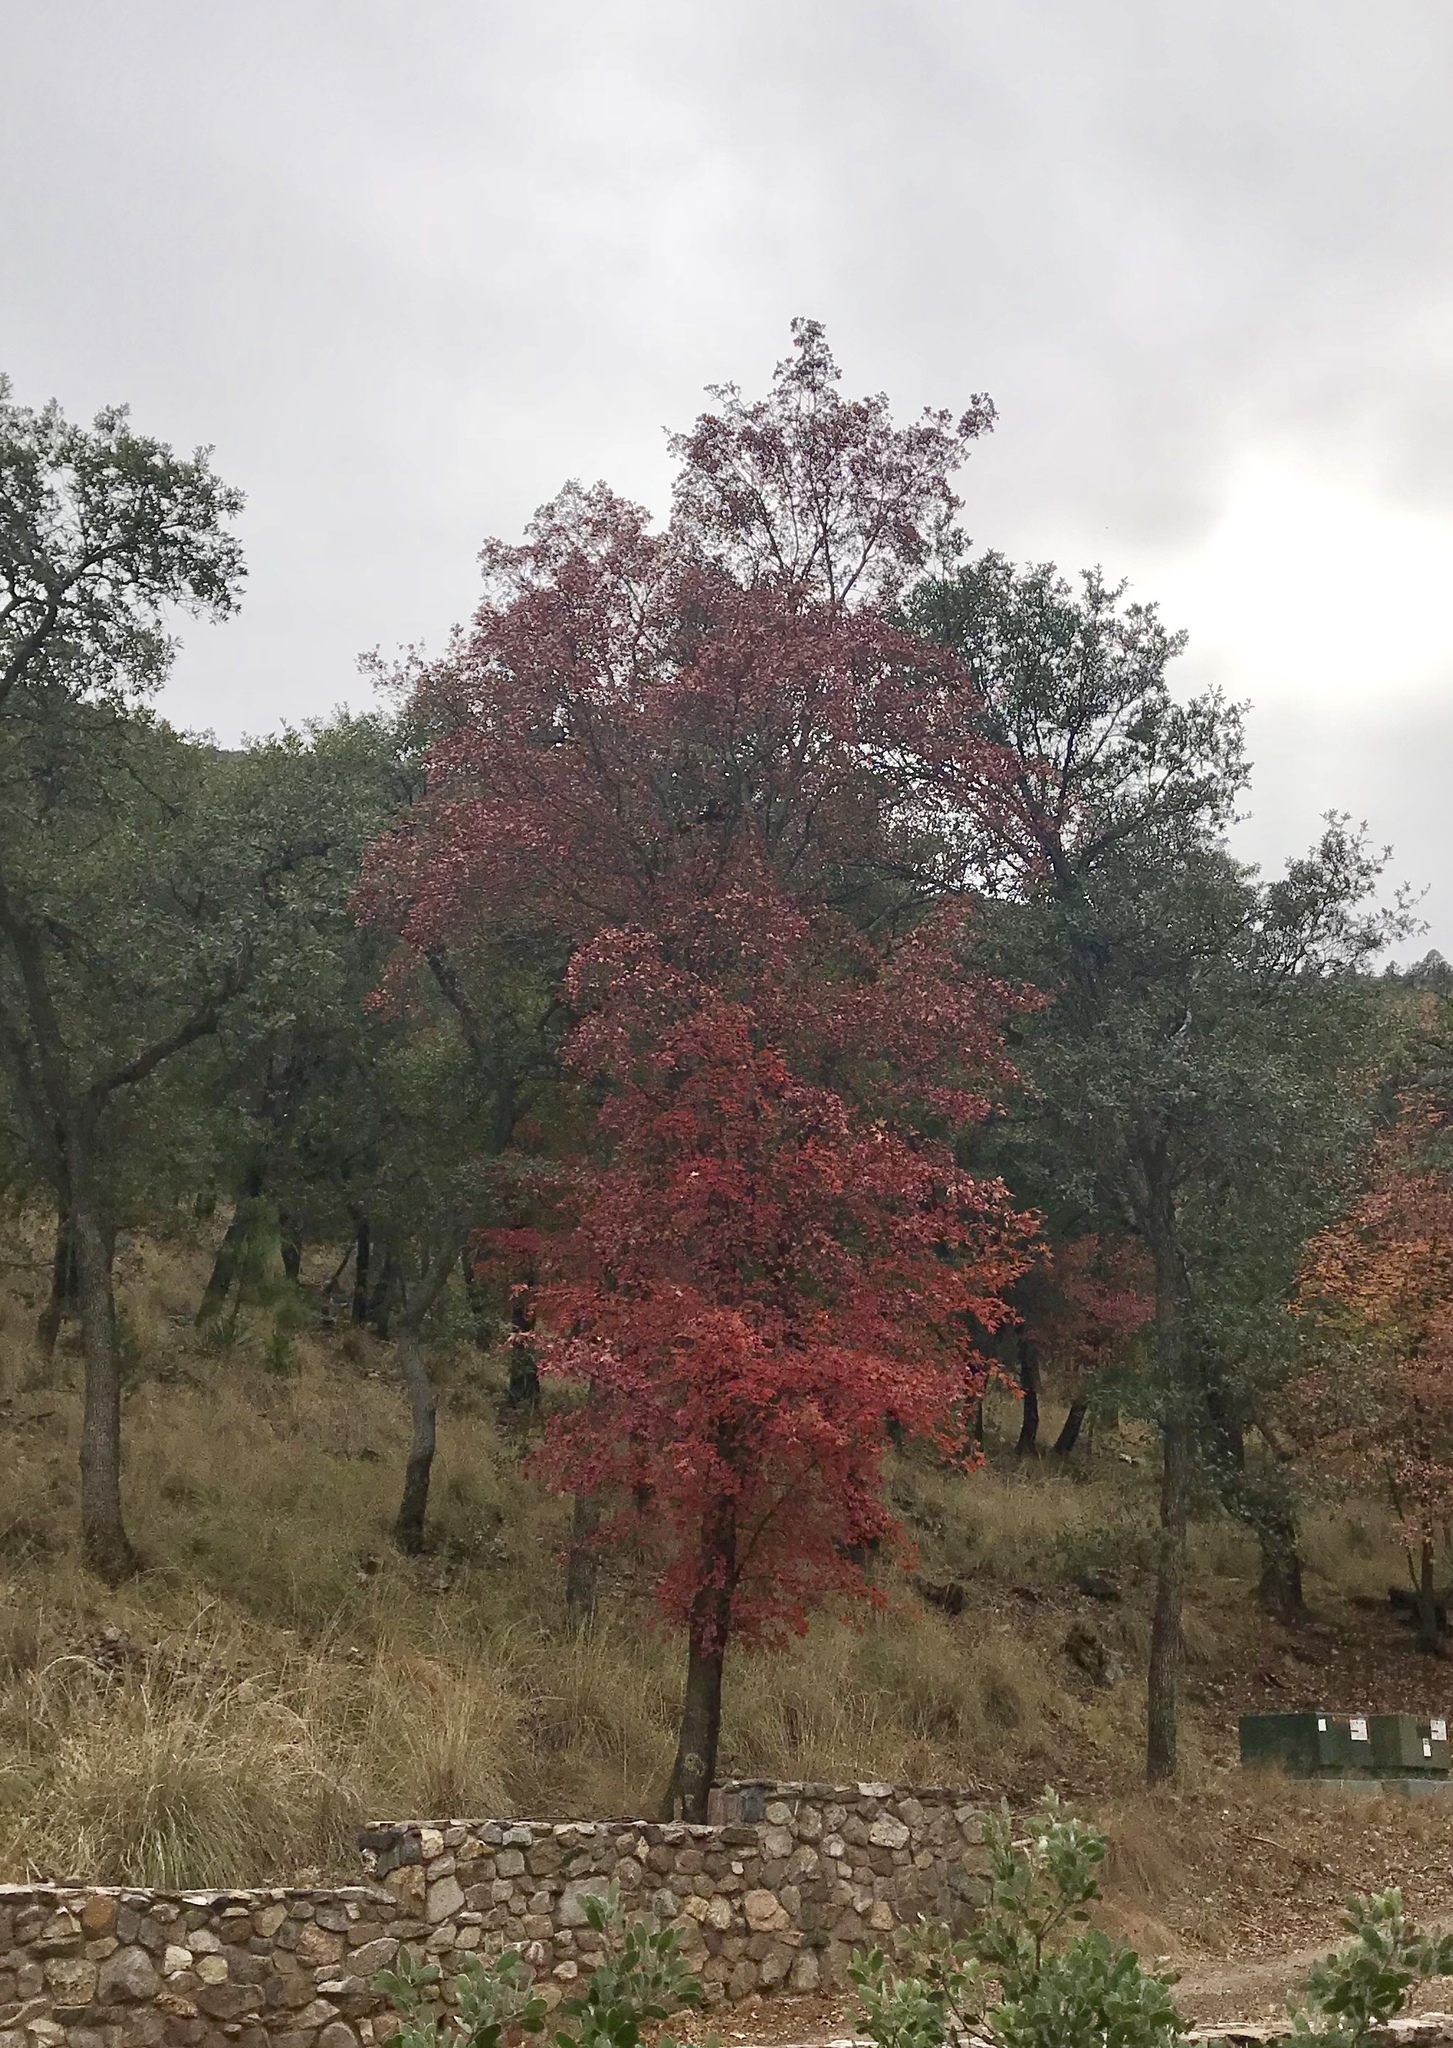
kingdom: Plantae
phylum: Tracheophyta
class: Magnoliopsida
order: Sapindales
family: Sapindaceae
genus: Acer
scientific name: Acer grandidentatum
